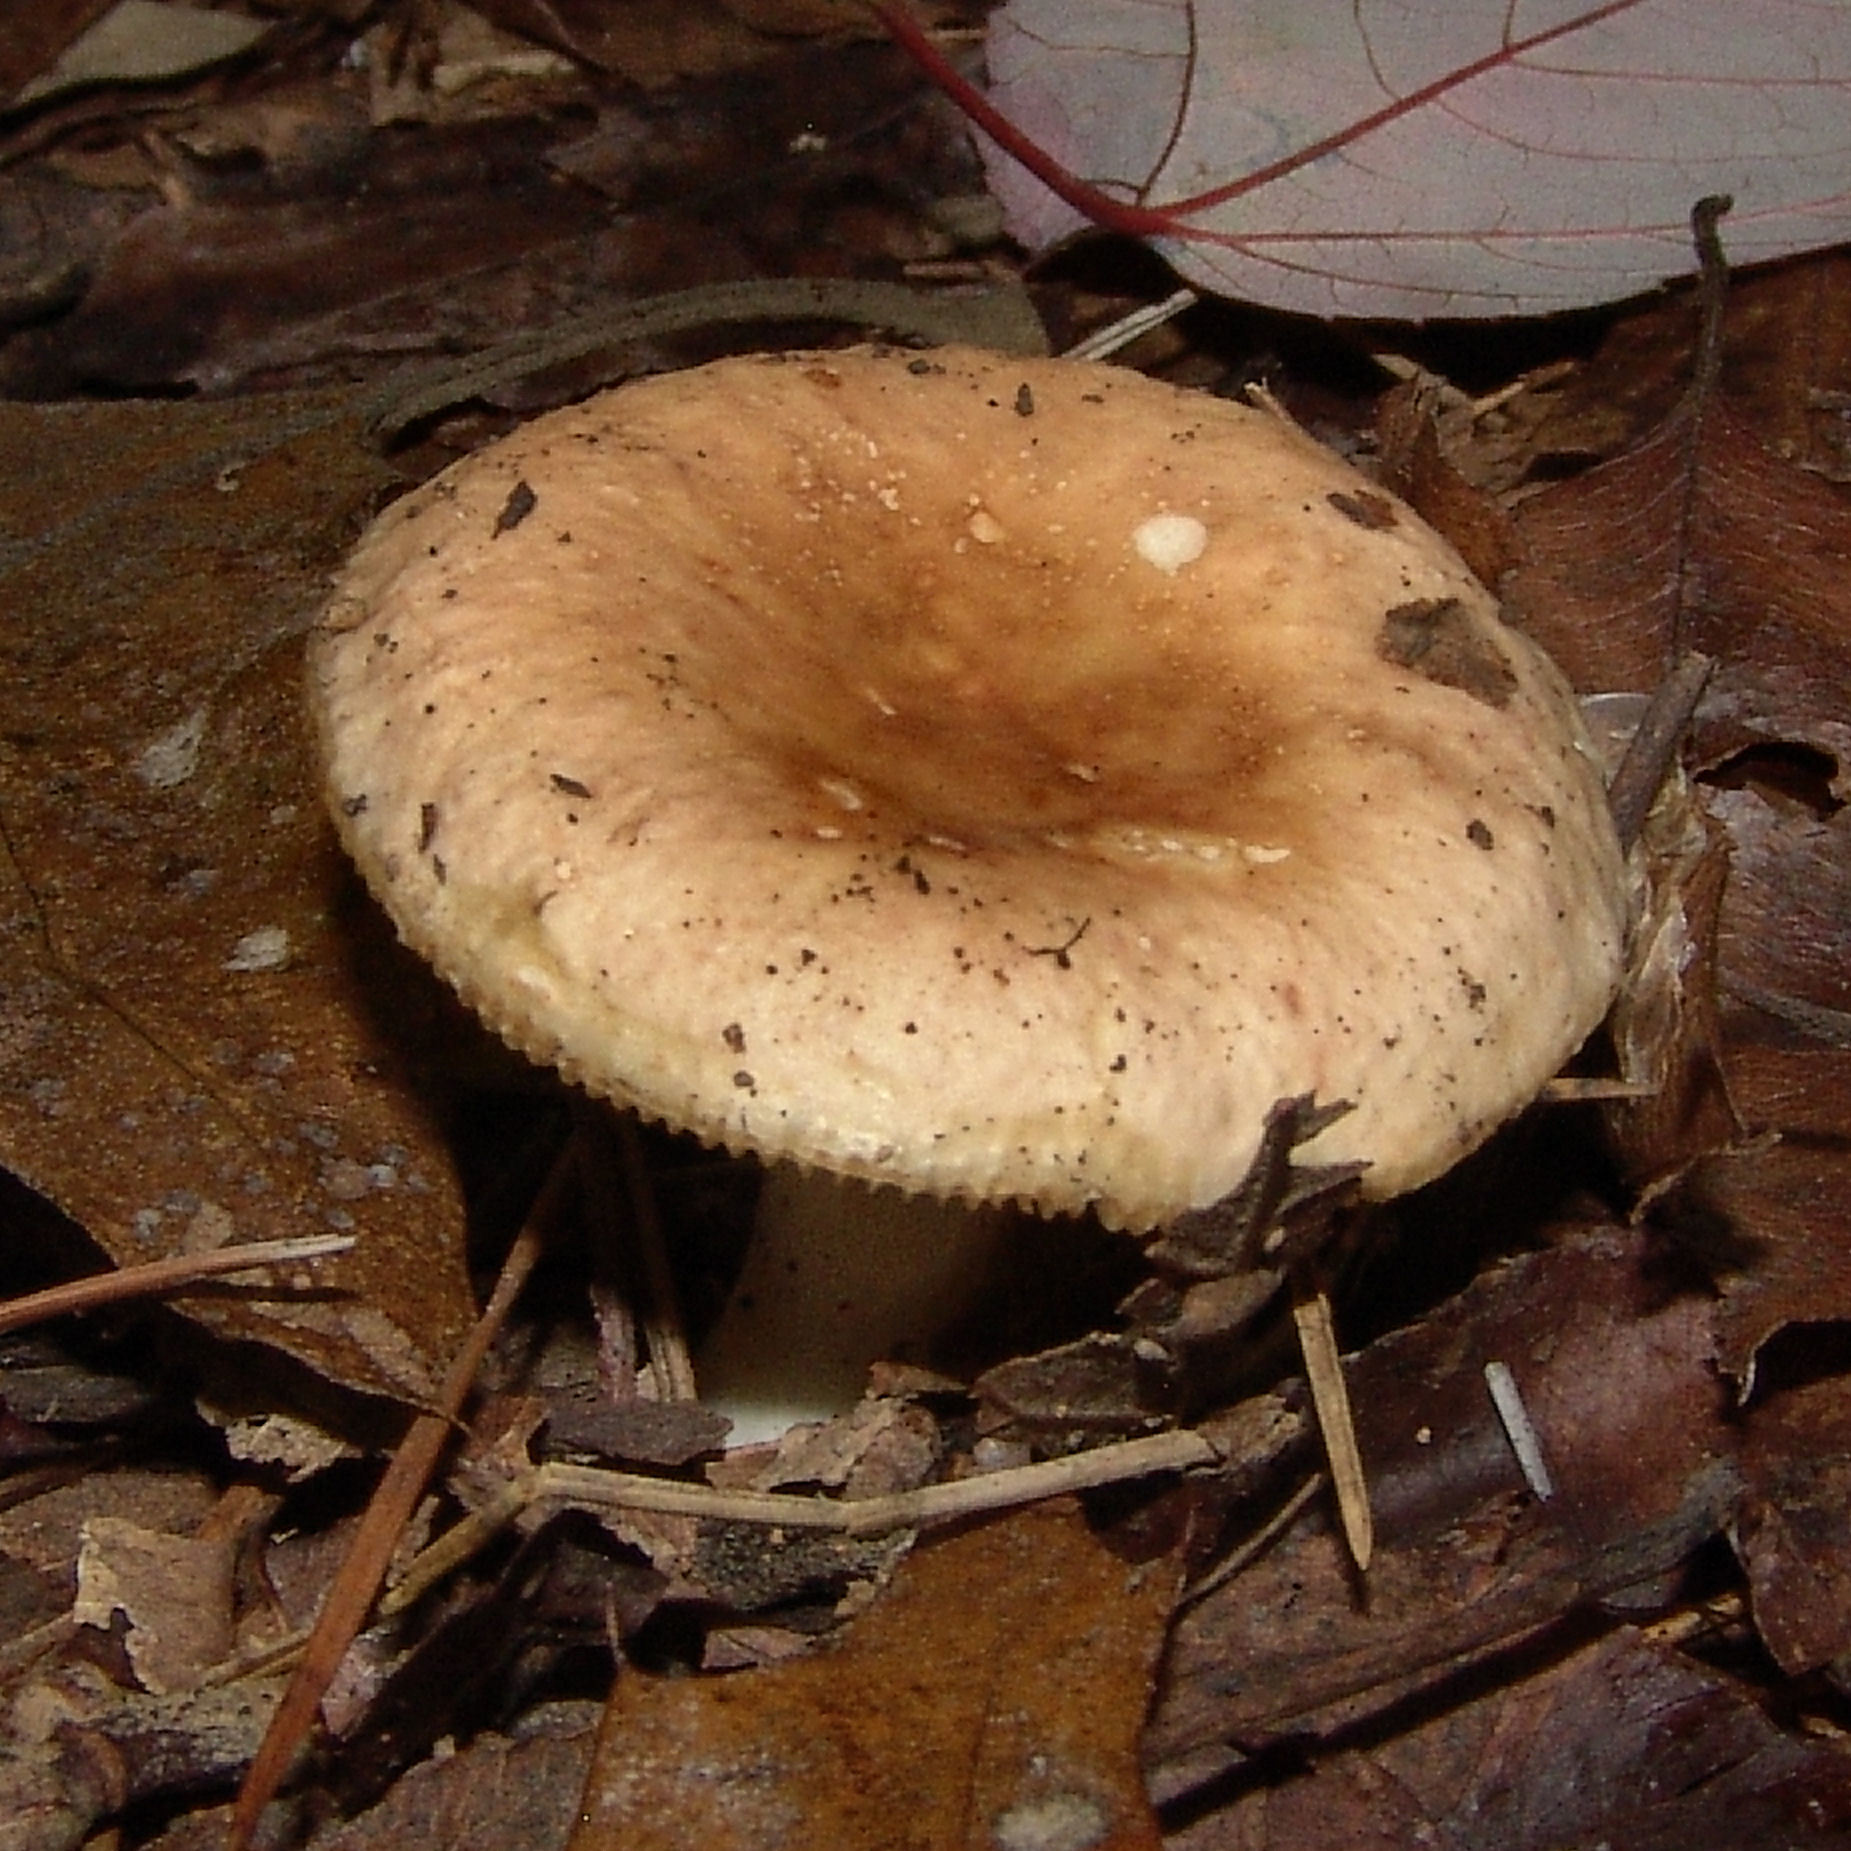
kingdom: Fungi
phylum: Basidiomycota
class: Agaricomycetes
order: Russulales
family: Russulaceae
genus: Russula
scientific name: Russula
